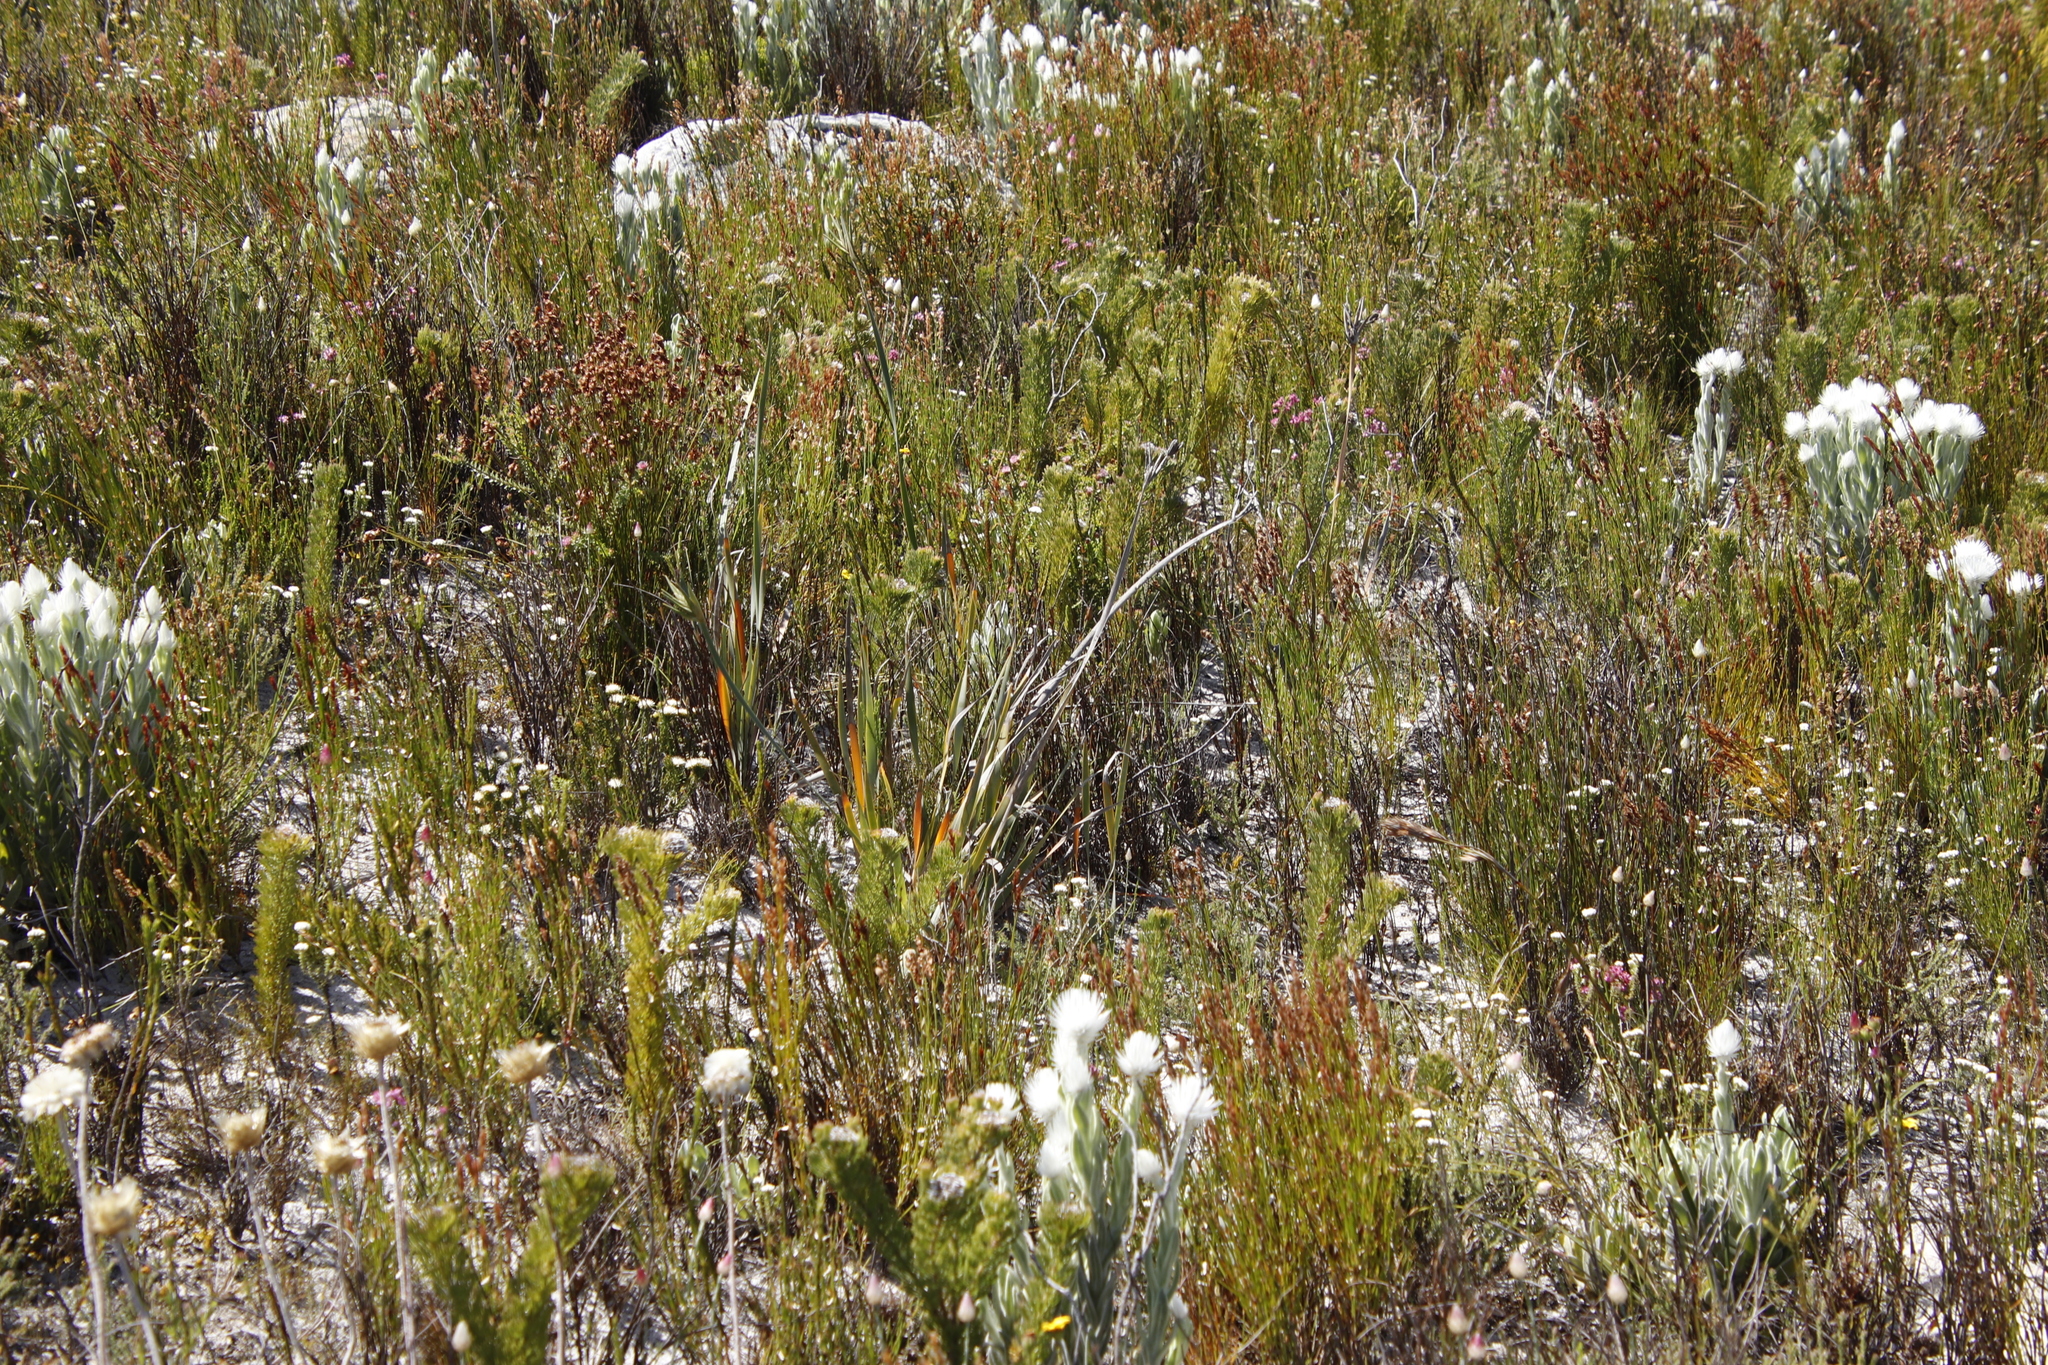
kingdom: Plantae
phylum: Tracheophyta
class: Liliopsida
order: Asparagales
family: Iridaceae
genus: Bobartia
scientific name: Bobartia gladiata
